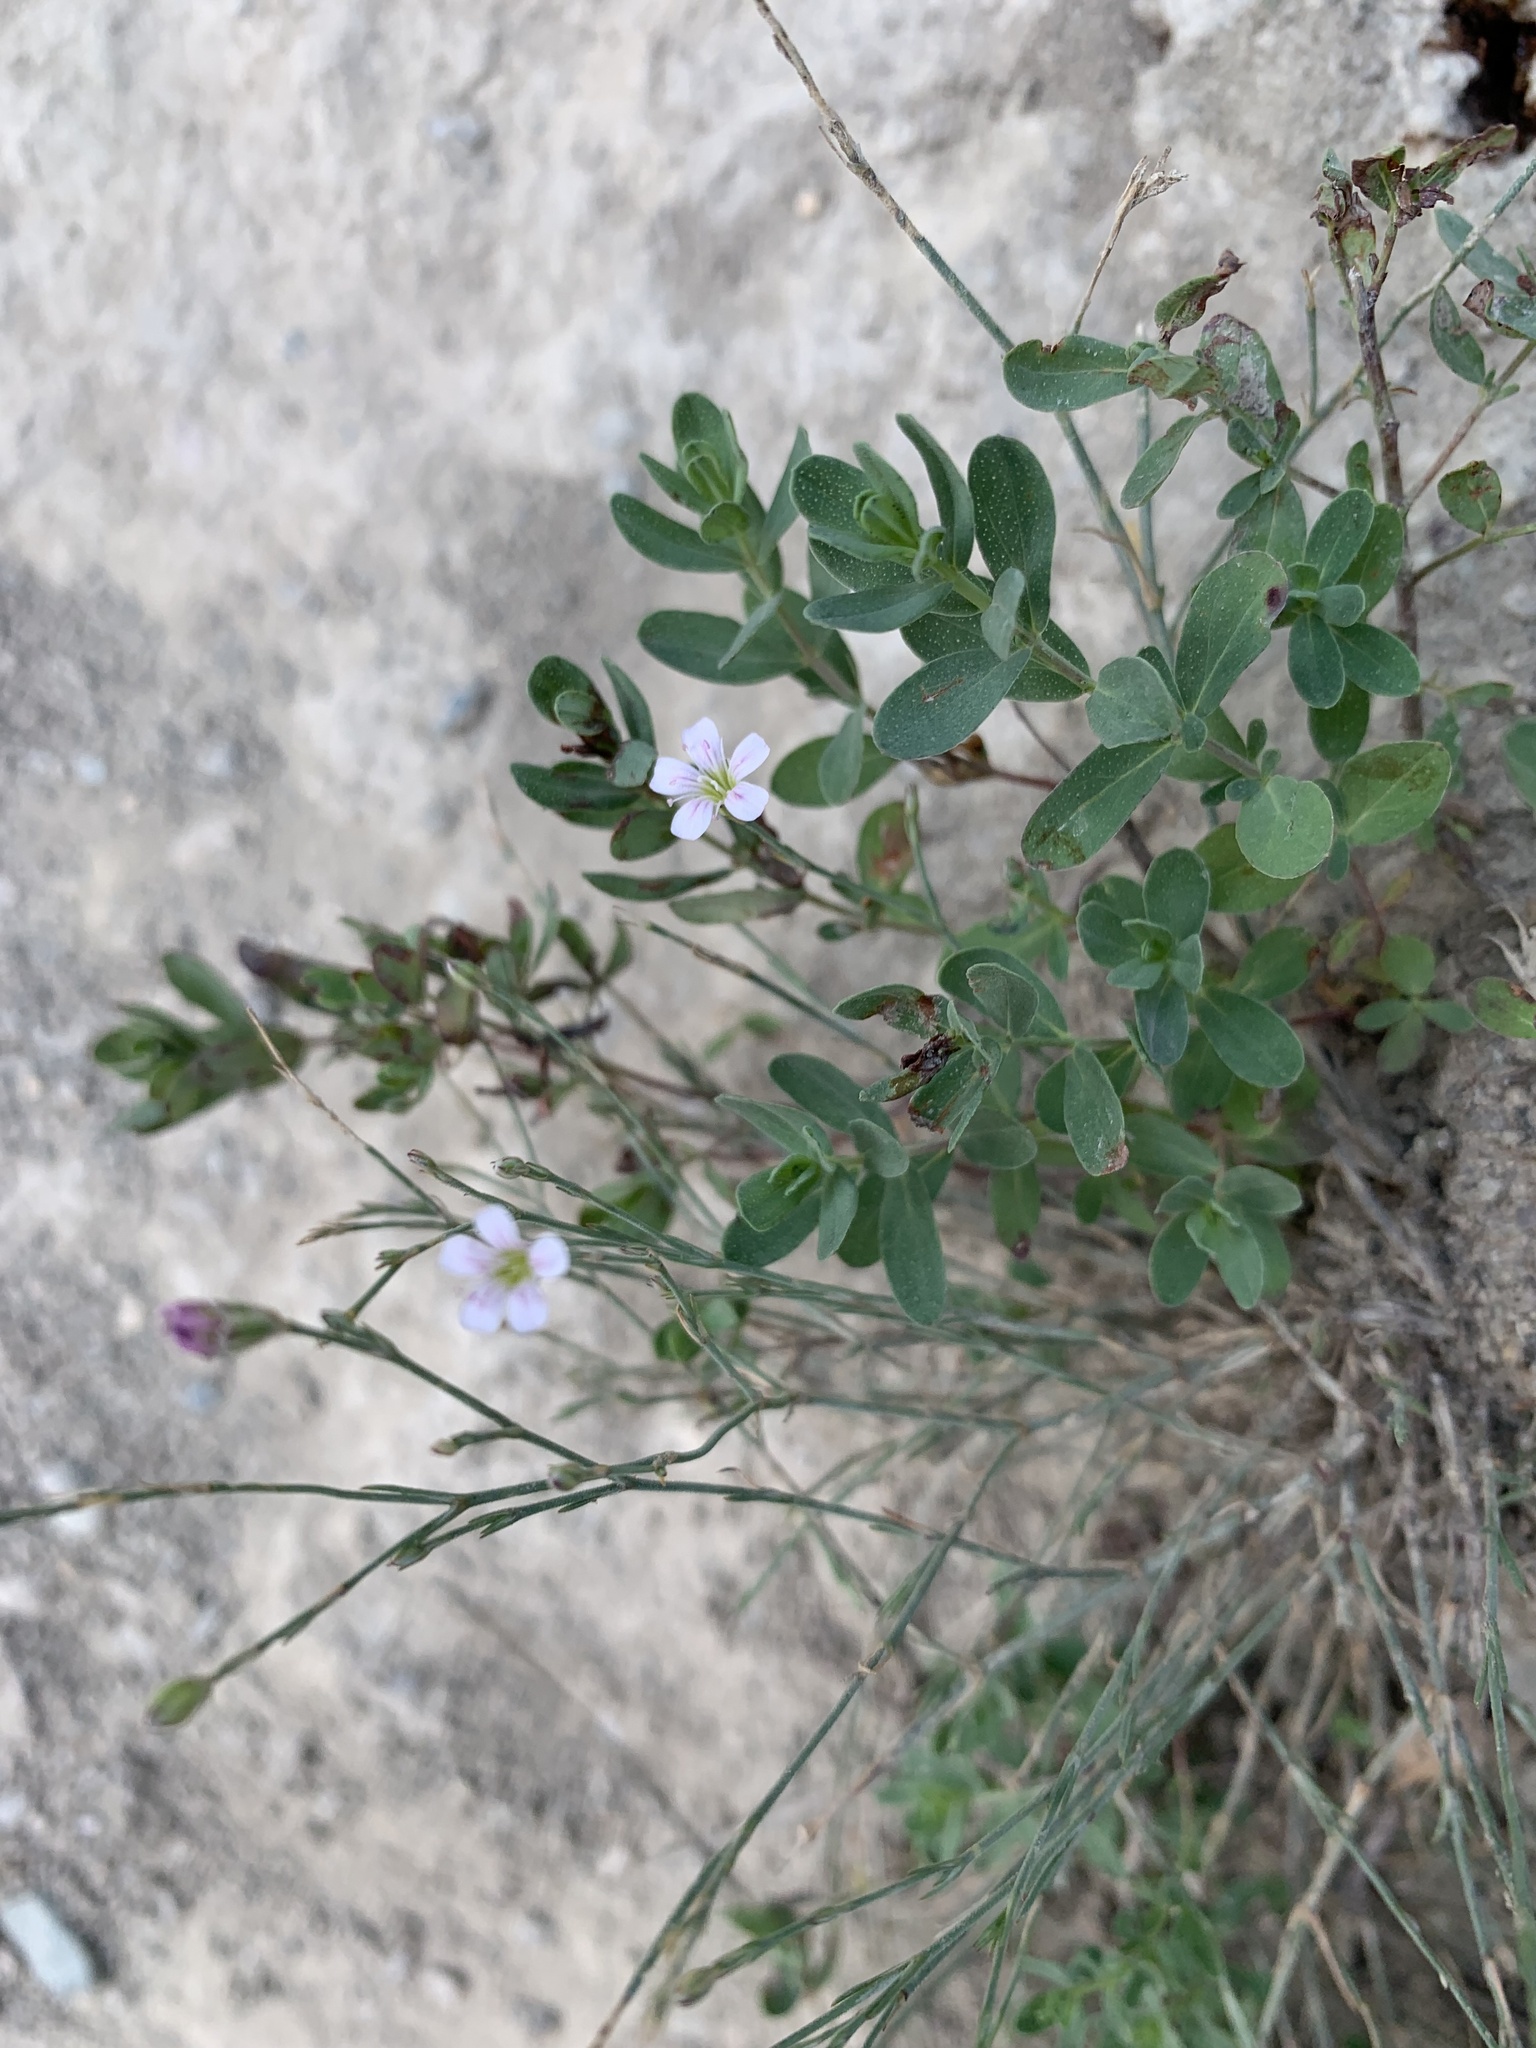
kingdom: Plantae
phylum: Tracheophyta
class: Magnoliopsida
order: Caryophyllales
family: Caryophyllaceae
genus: Petrorhagia
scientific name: Petrorhagia saxifraga
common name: Tunicflower
